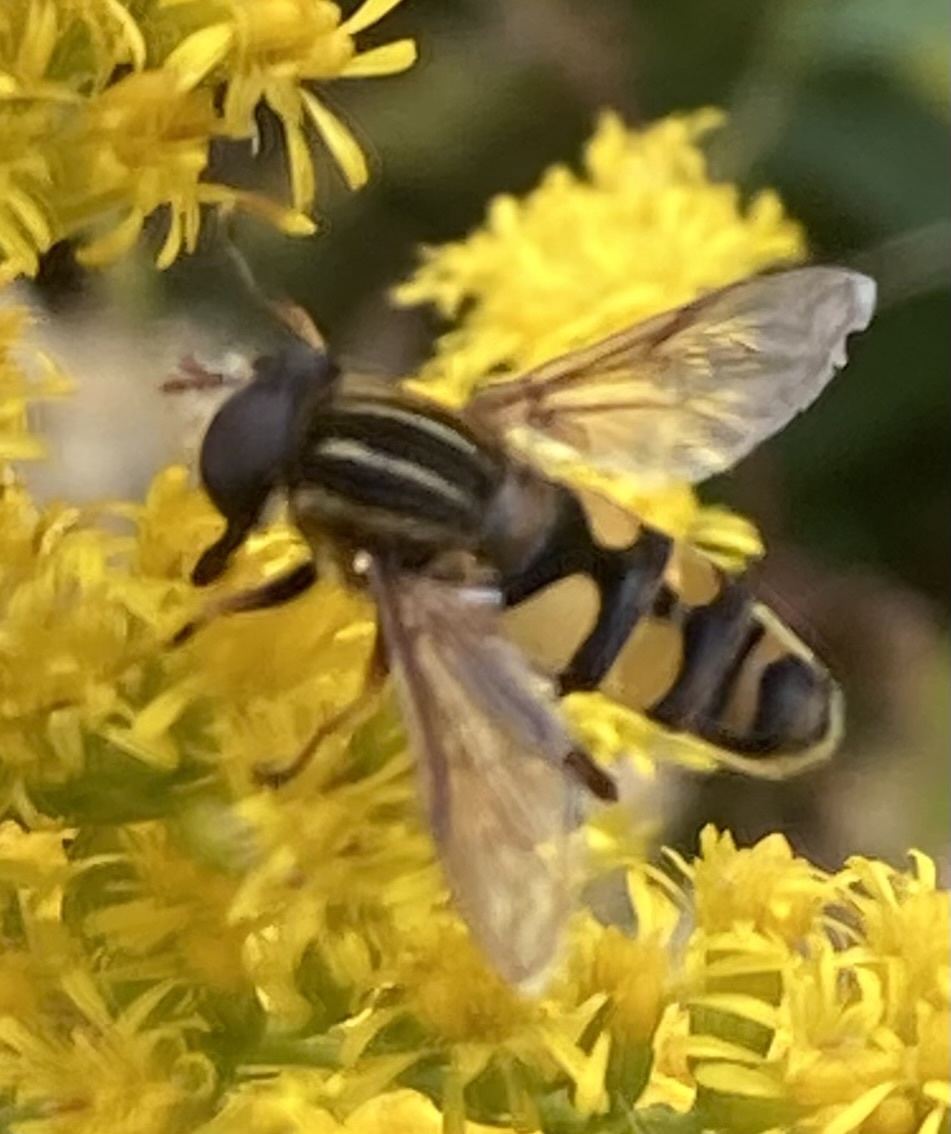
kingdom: Animalia
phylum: Arthropoda
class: Insecta
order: Diptera
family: Syrphidae
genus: Helophilus
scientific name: Helophilus fasciatus
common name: Narrow-headed marsh fly
